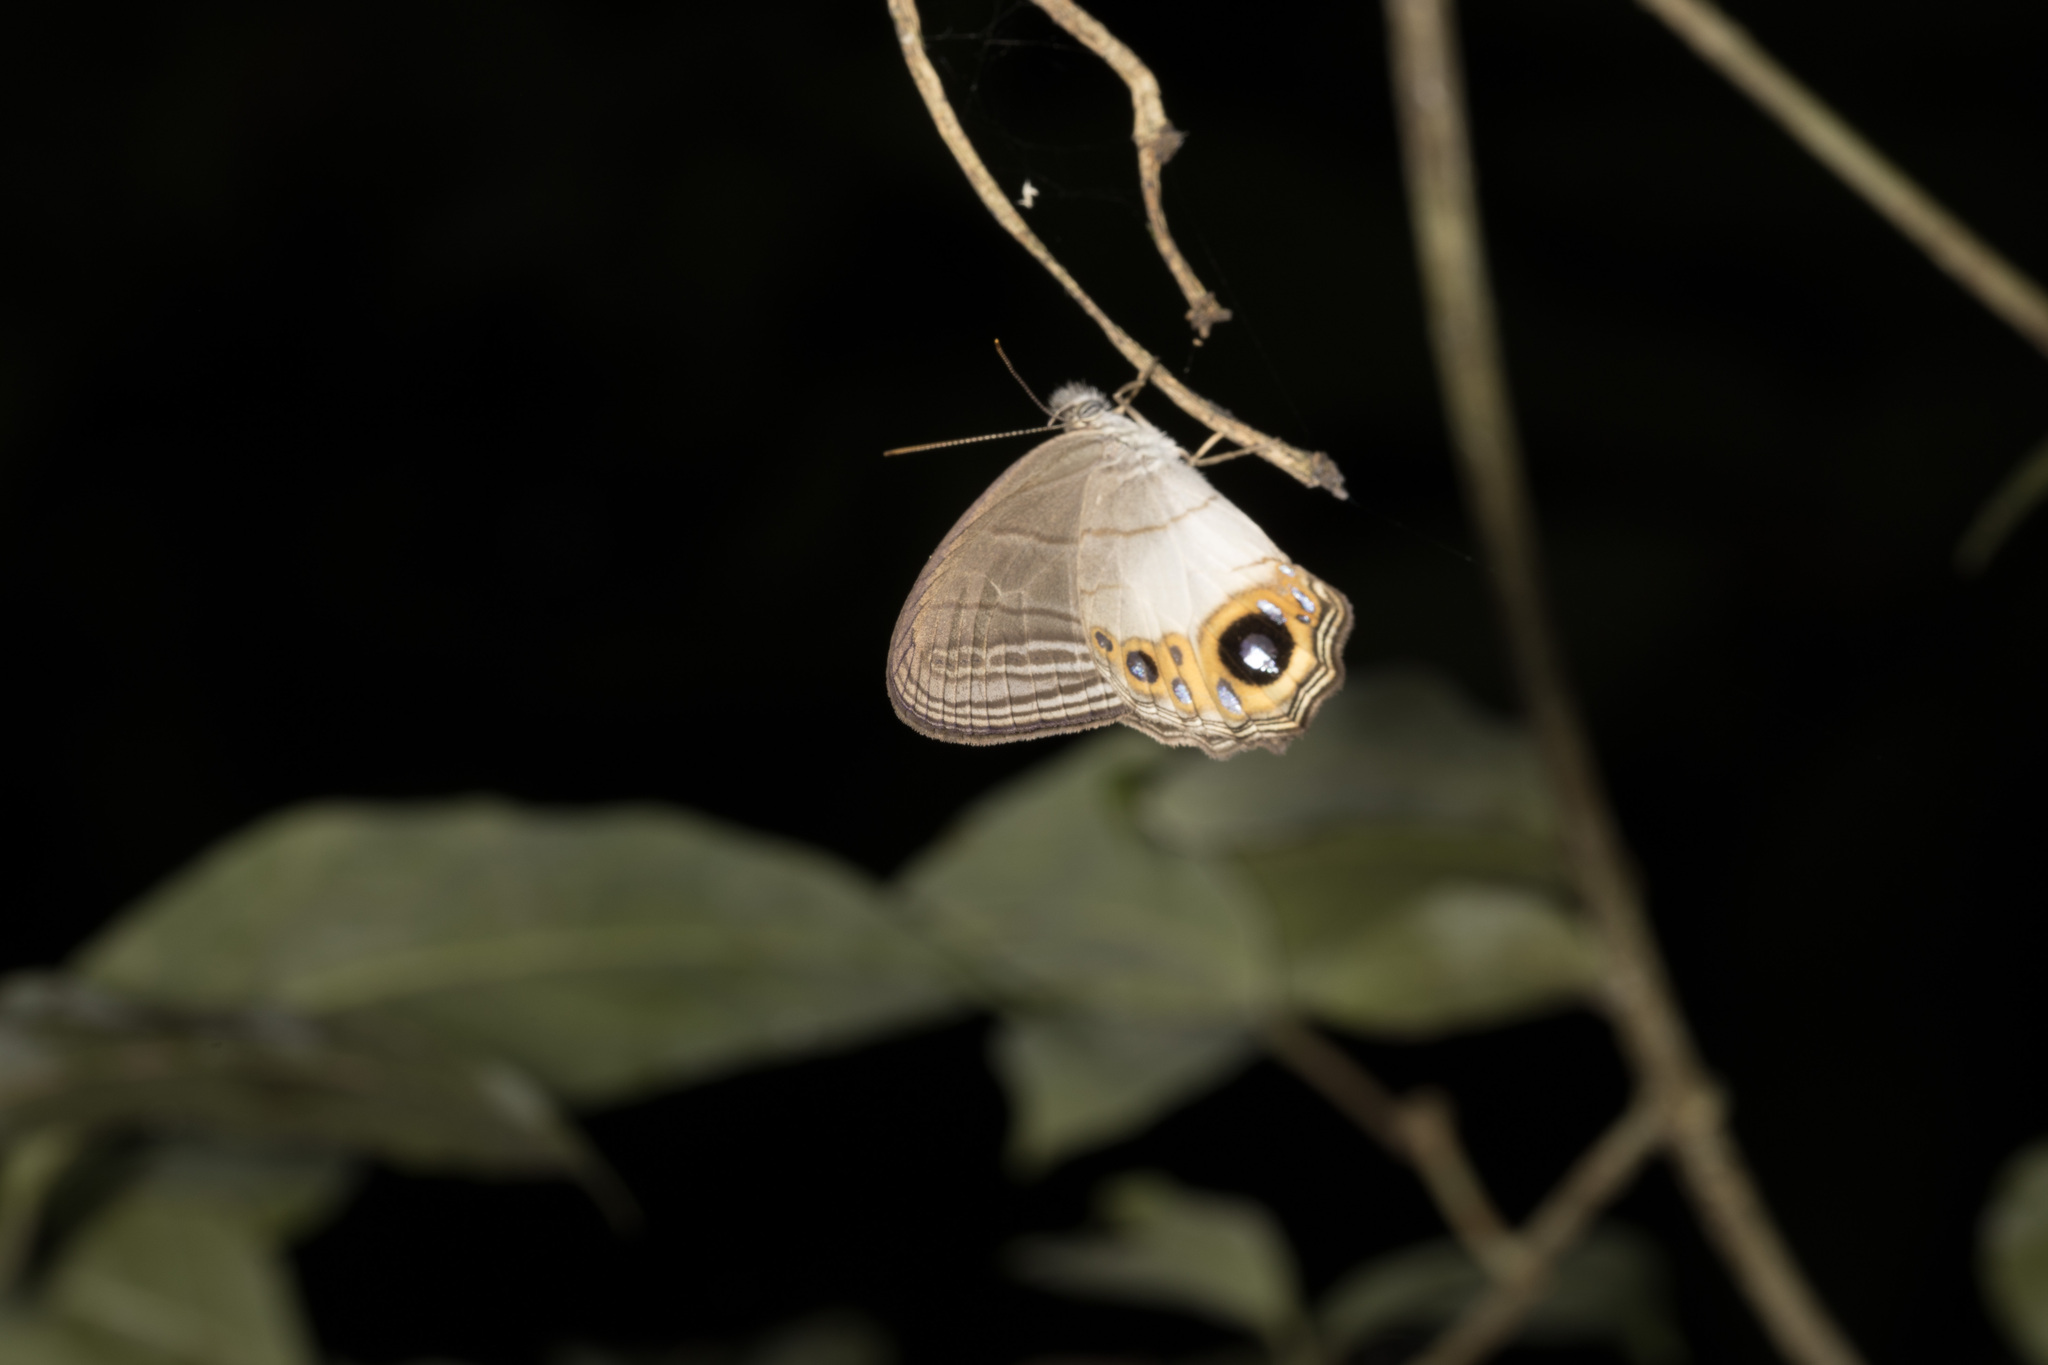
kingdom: Animalia
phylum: Arthropoda
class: Insecta
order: Lepidoptera
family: Nymphalidae
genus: Splendeuptychia
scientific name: Splendeuptychia itonis
